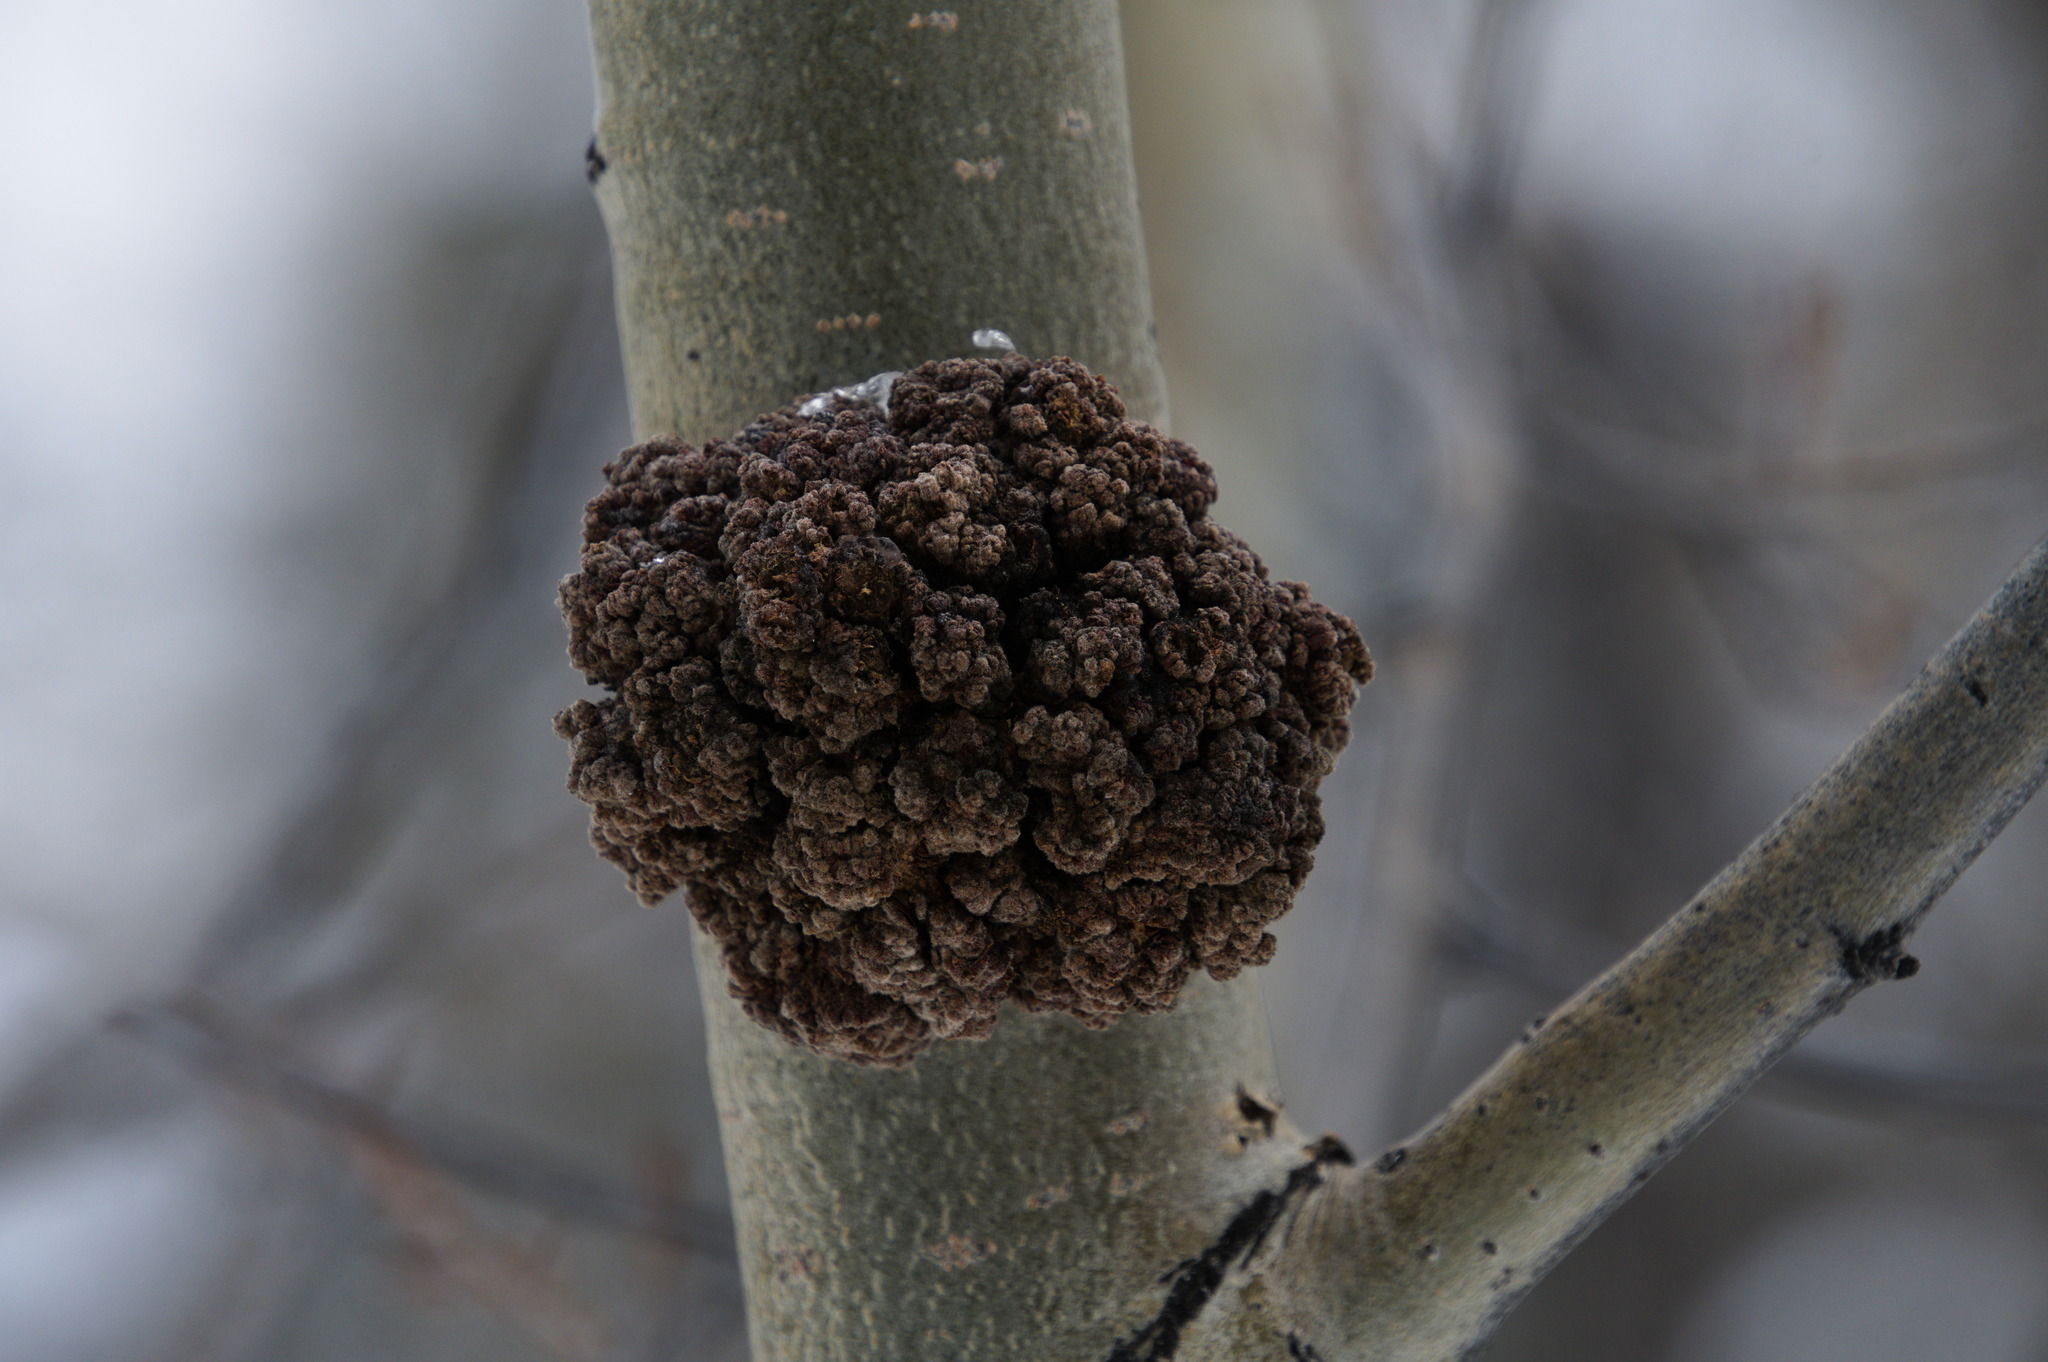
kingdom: Animalia
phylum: Arthropoda
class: Arachnida
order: Trombidiformes
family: Eriophyidae
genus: Aceria
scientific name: Aceria
